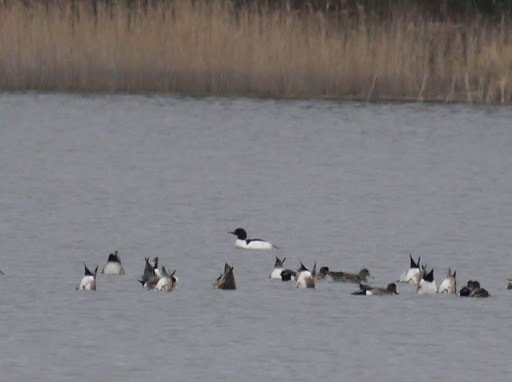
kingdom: Animalia
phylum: Chordata
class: Aves
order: Anseriformes
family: Anatidae
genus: Mergus
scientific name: Mergus merganser
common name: Common merganser
